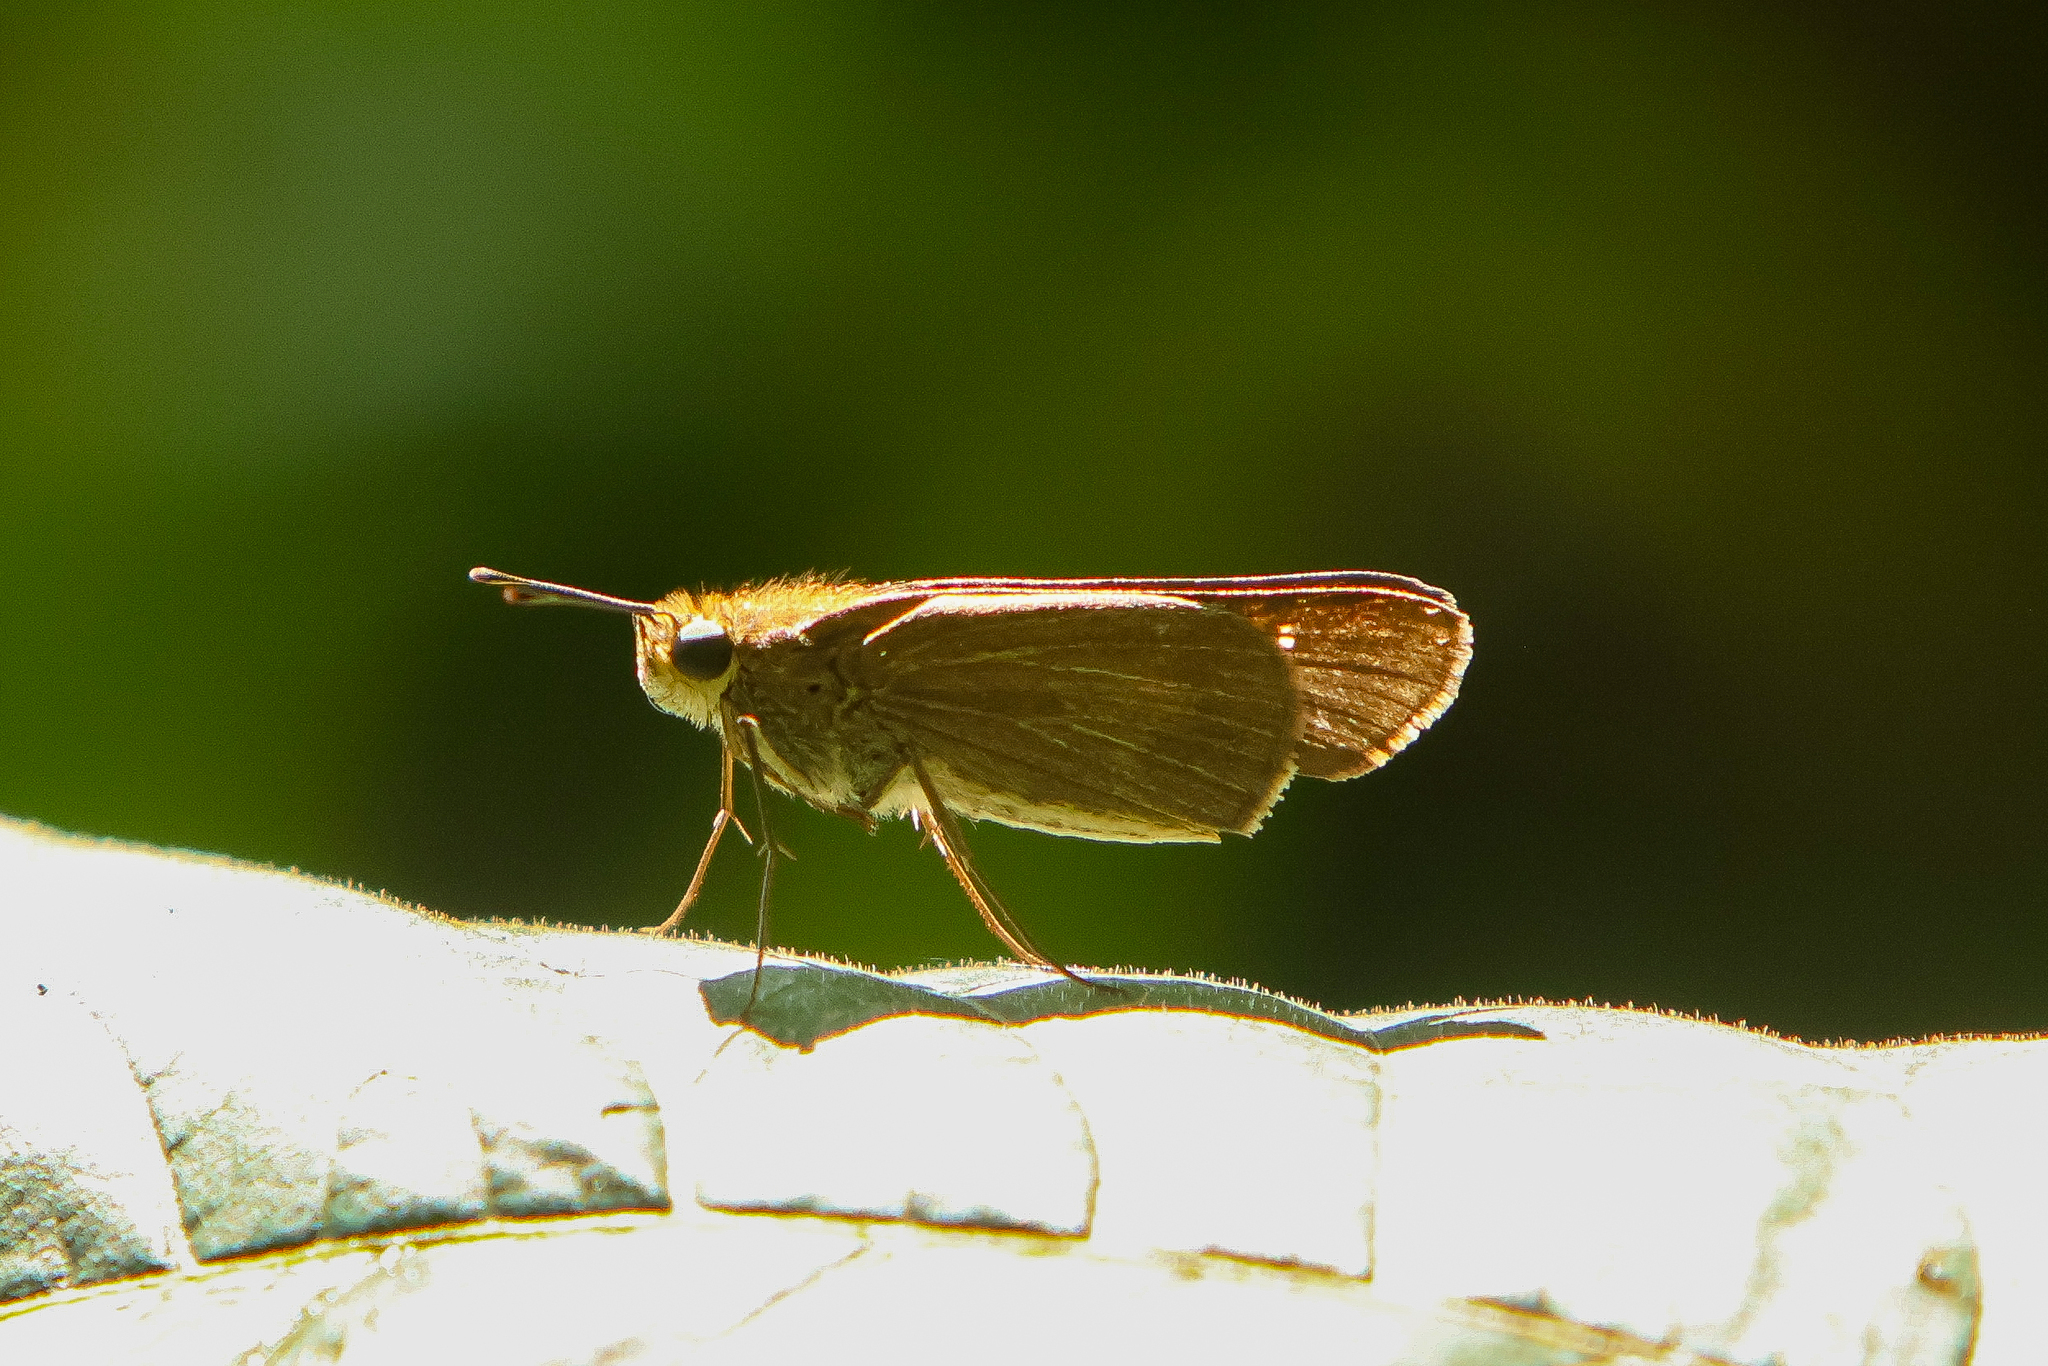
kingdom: Animalia
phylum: Arthropoda
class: Insecta
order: Lepidoptera
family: Hesperiidae
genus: Panoquina
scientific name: Panoquina ocola
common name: Ocola skipper
